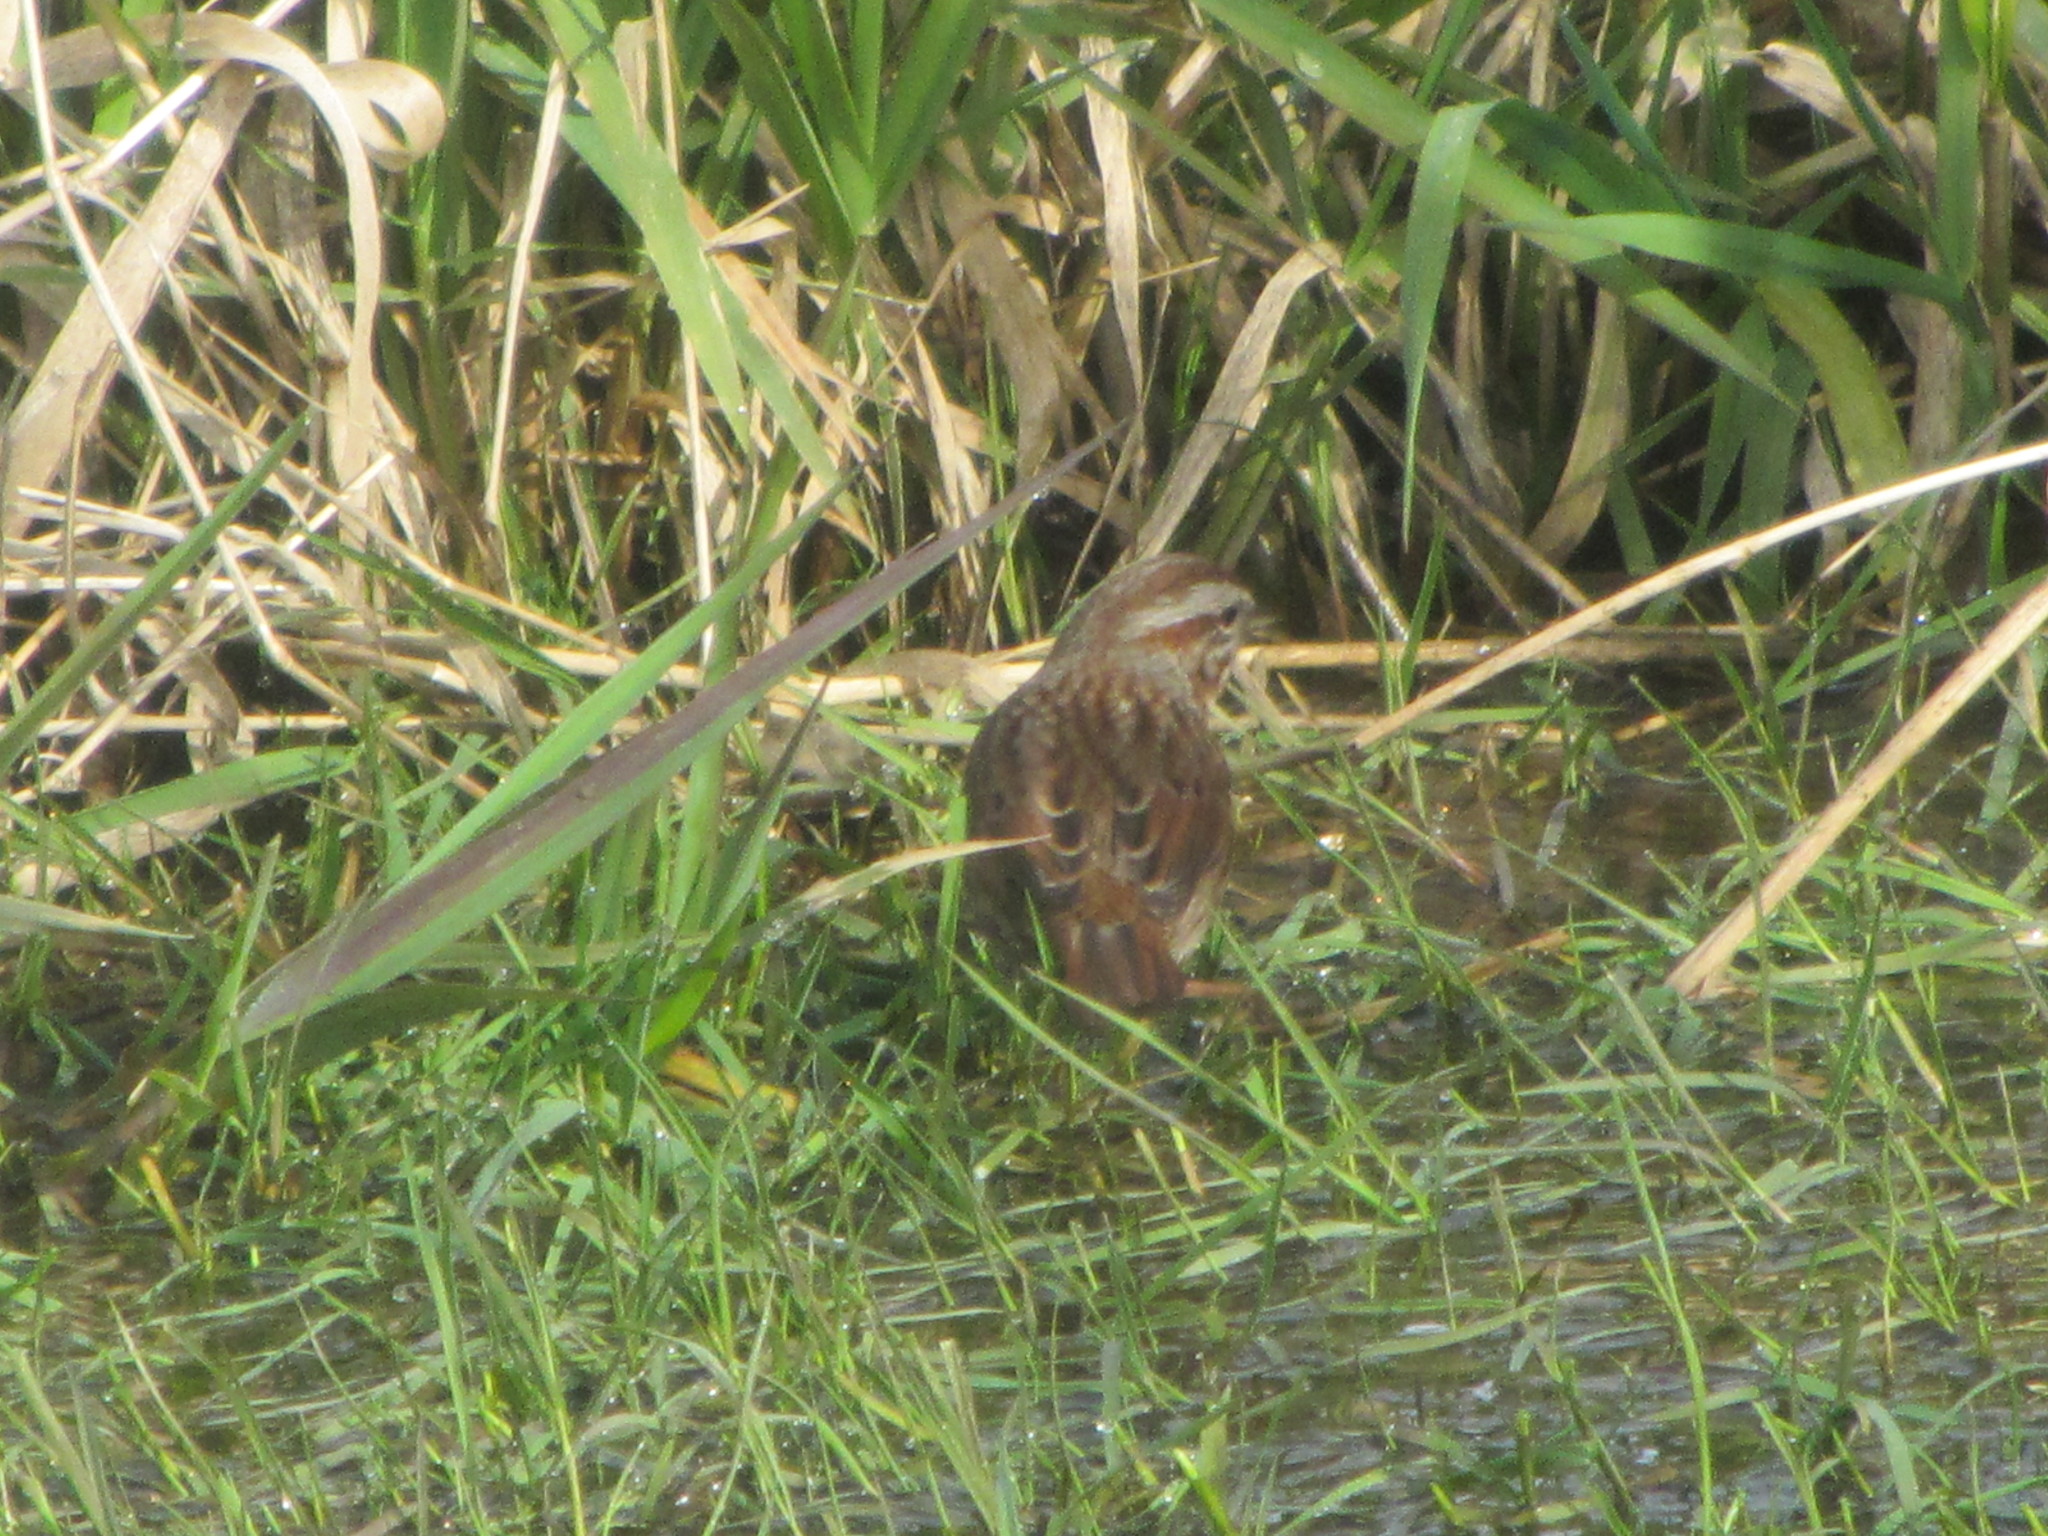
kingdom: Animalia
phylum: Chordata
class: Aves
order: Passeriformes
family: Passerellidae
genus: Melospiza
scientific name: Melospiza melodia
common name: Song sparrow
